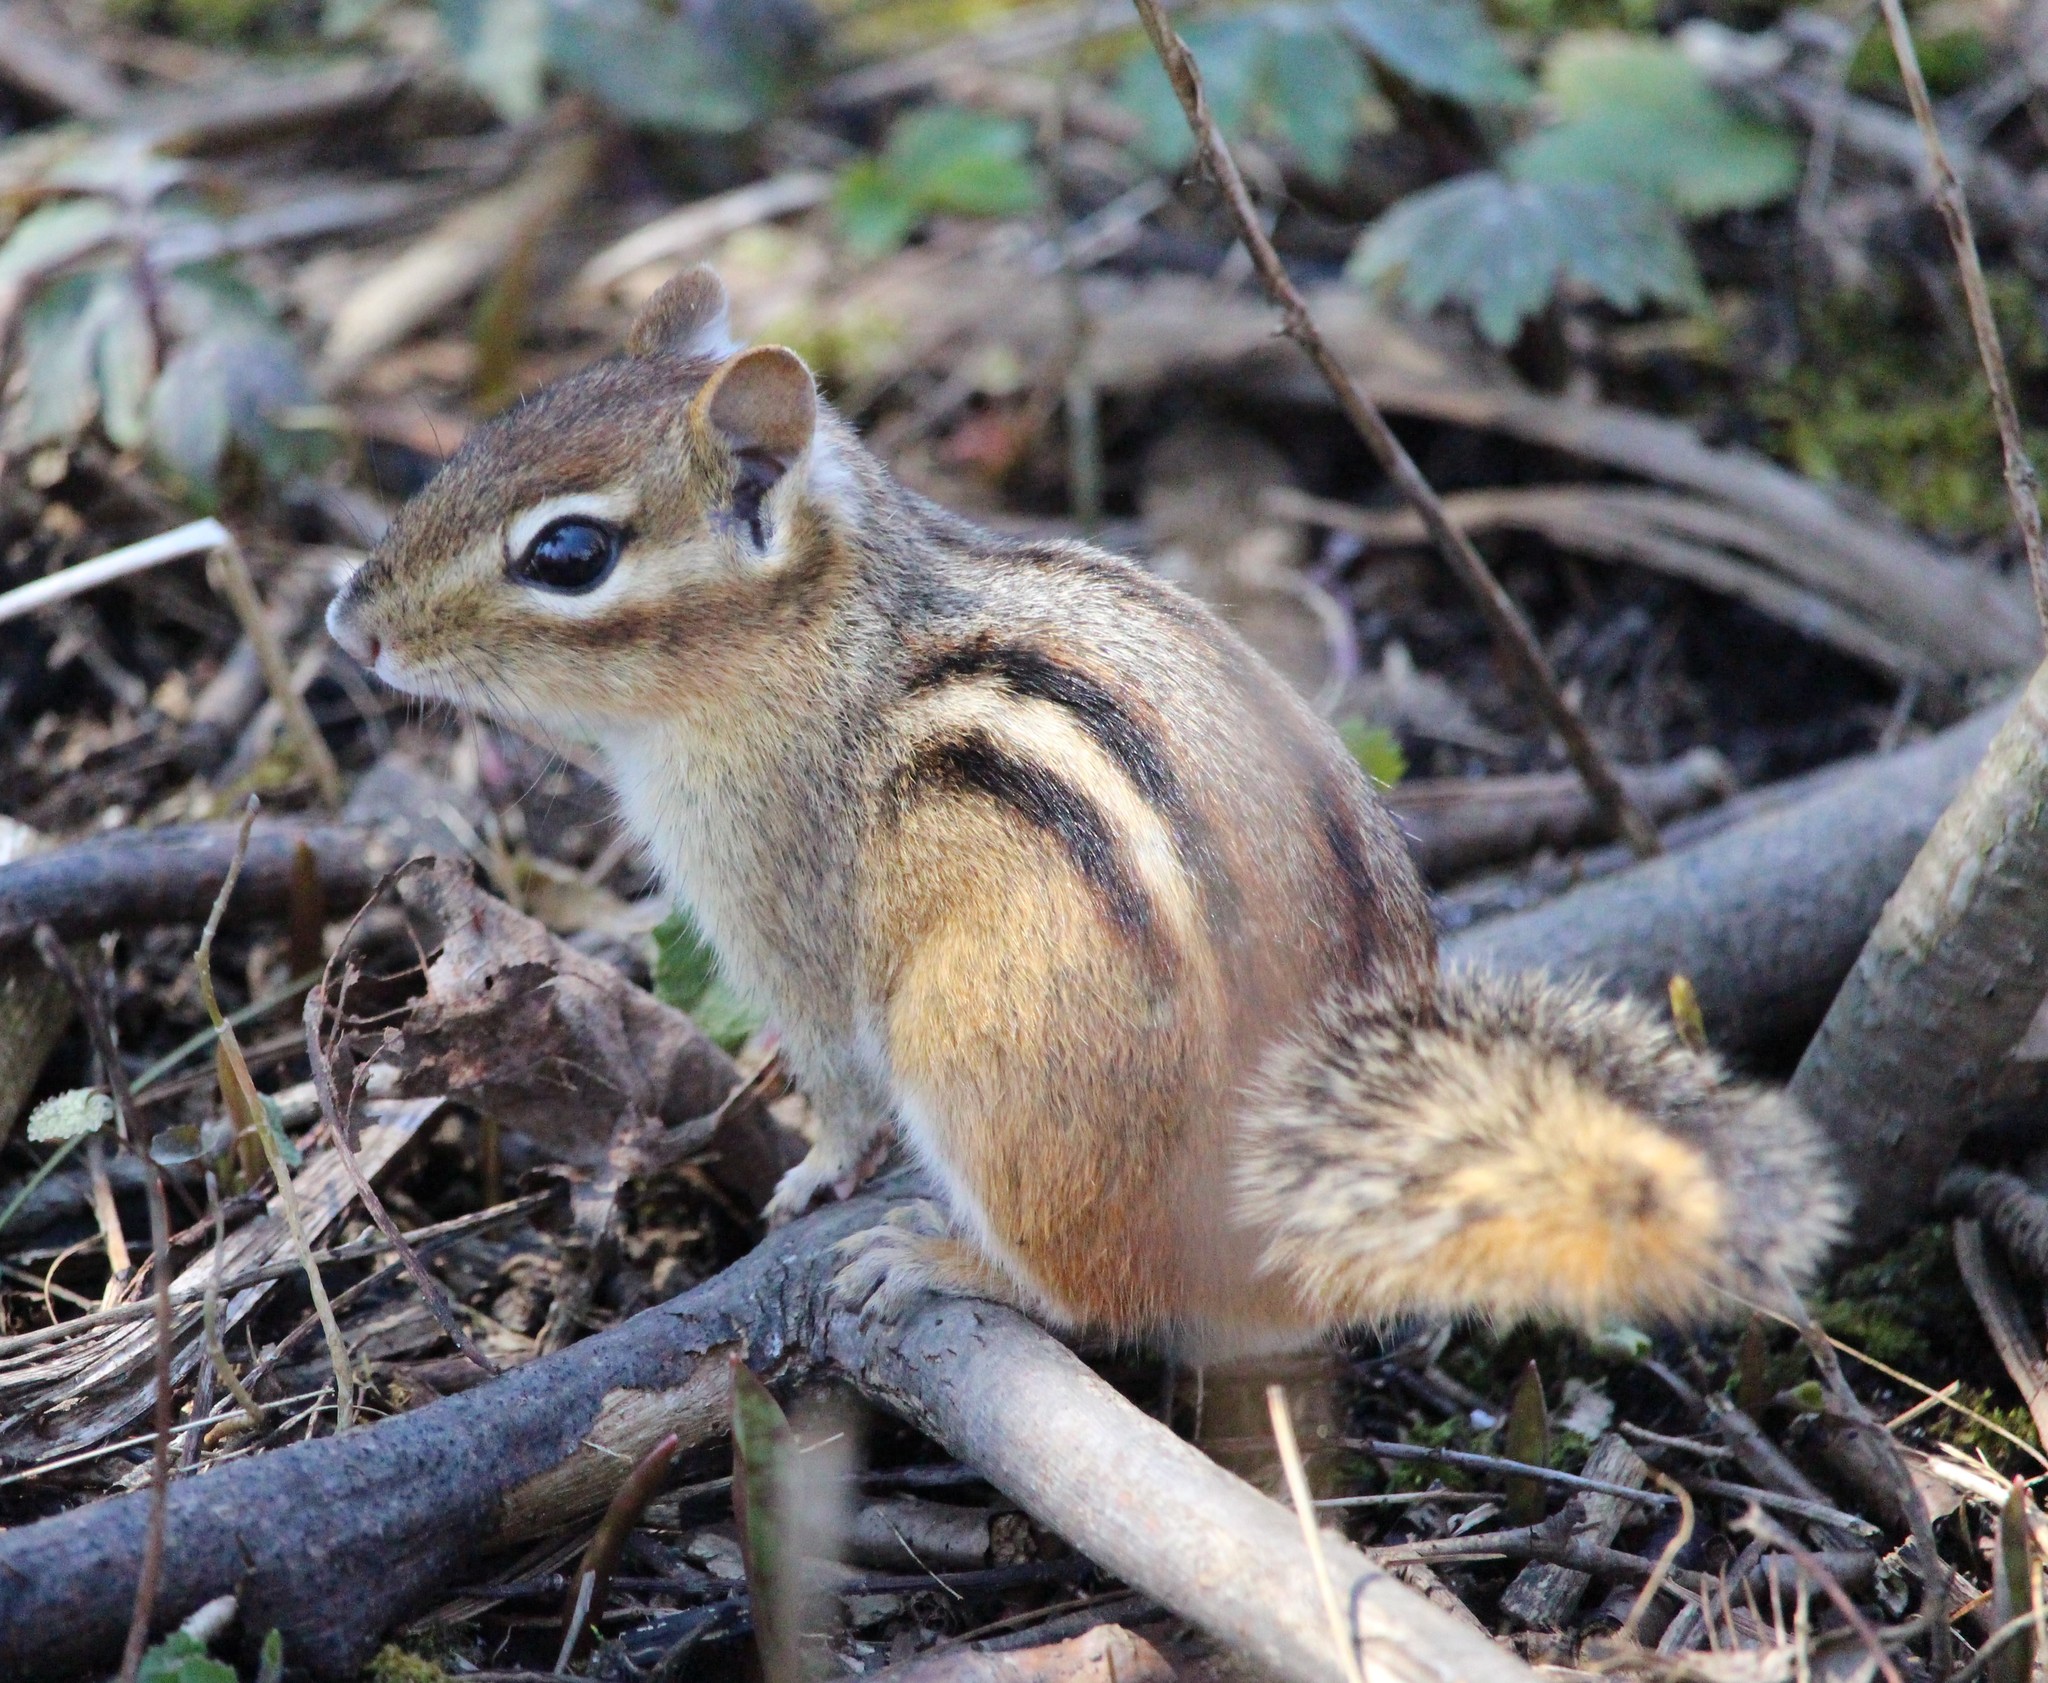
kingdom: Animalia
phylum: Chordata
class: Mammalia
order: Rodentia
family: Sciuridae
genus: Tamias
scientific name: Tamias striatus
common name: Eastern chipmunk
